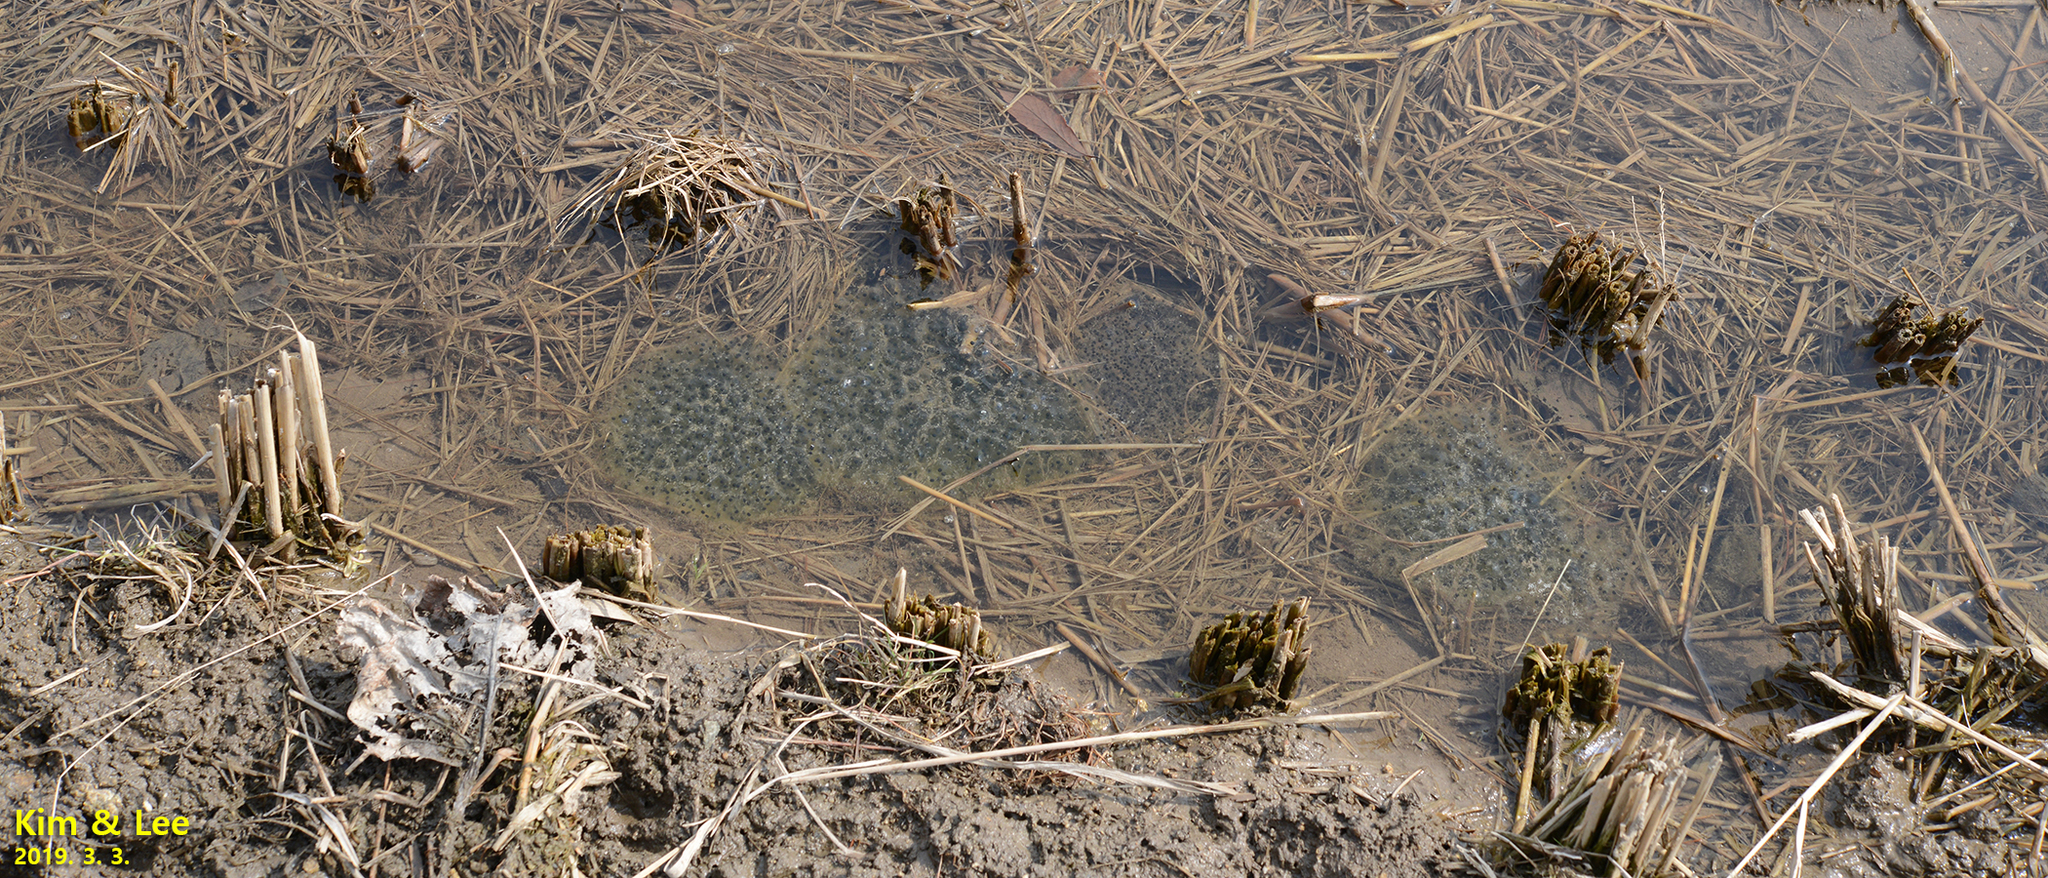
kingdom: Animalia
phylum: Chordata
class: Amphibia
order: Anura
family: Ranidae
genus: Rana
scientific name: Rana uenoi
